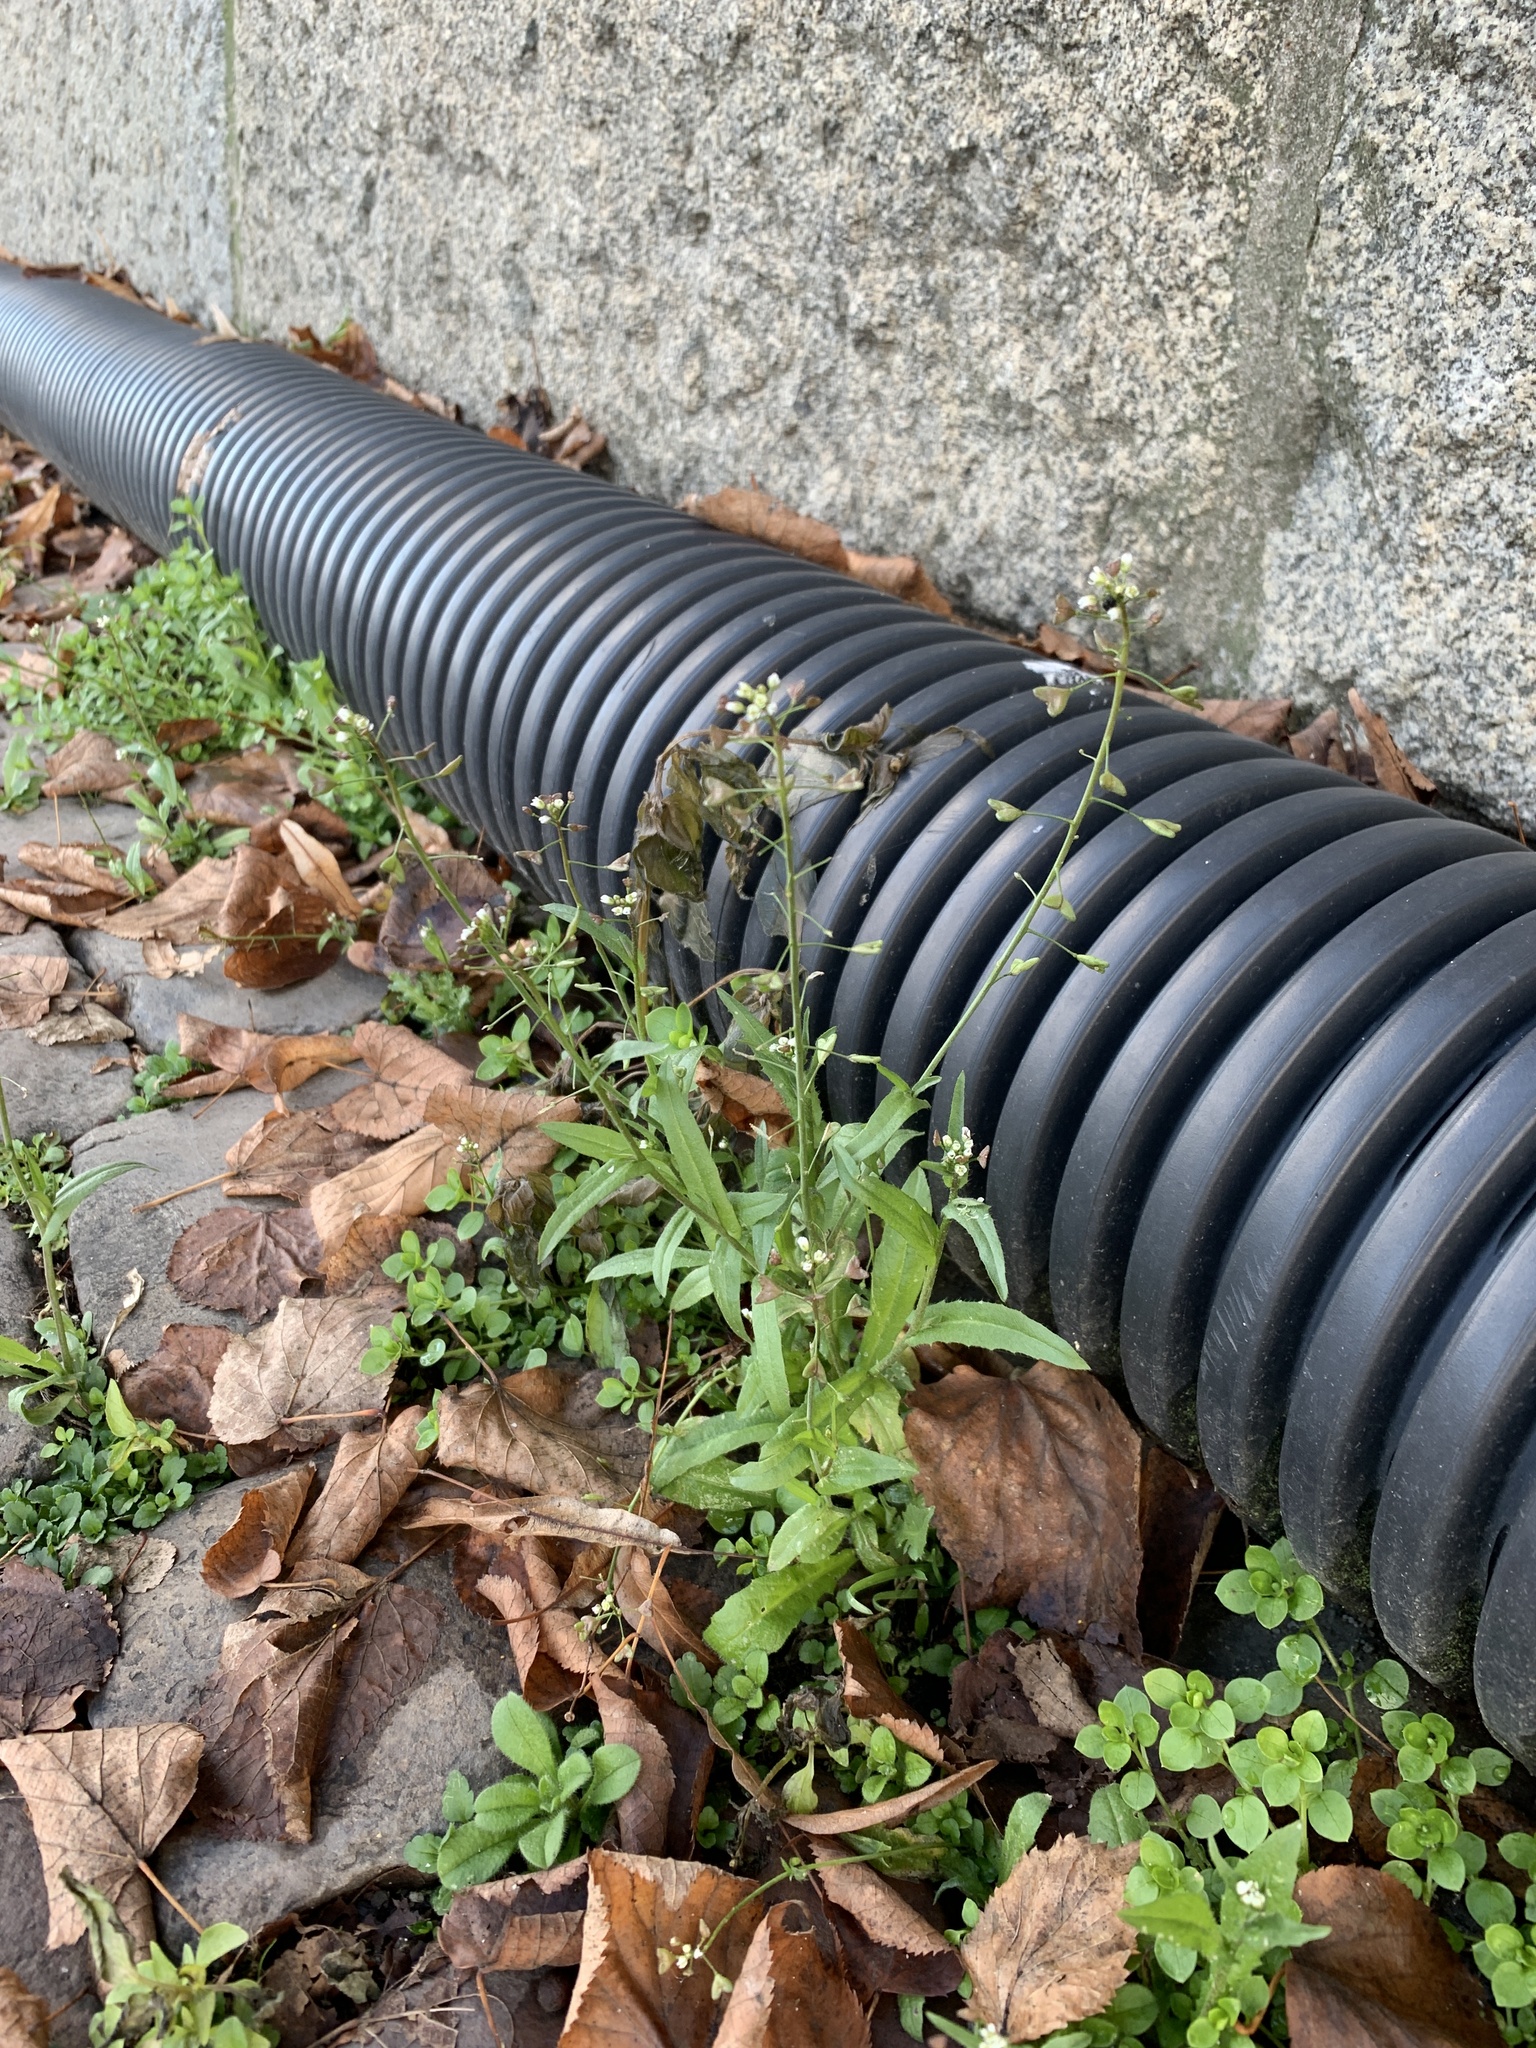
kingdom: Plantae
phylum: Tracheophyta
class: Magnoliopsida
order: Brassicales
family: Brassicaceae
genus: Capsella
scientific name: Capsella bursa-pastoris
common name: Shepherd's purse
